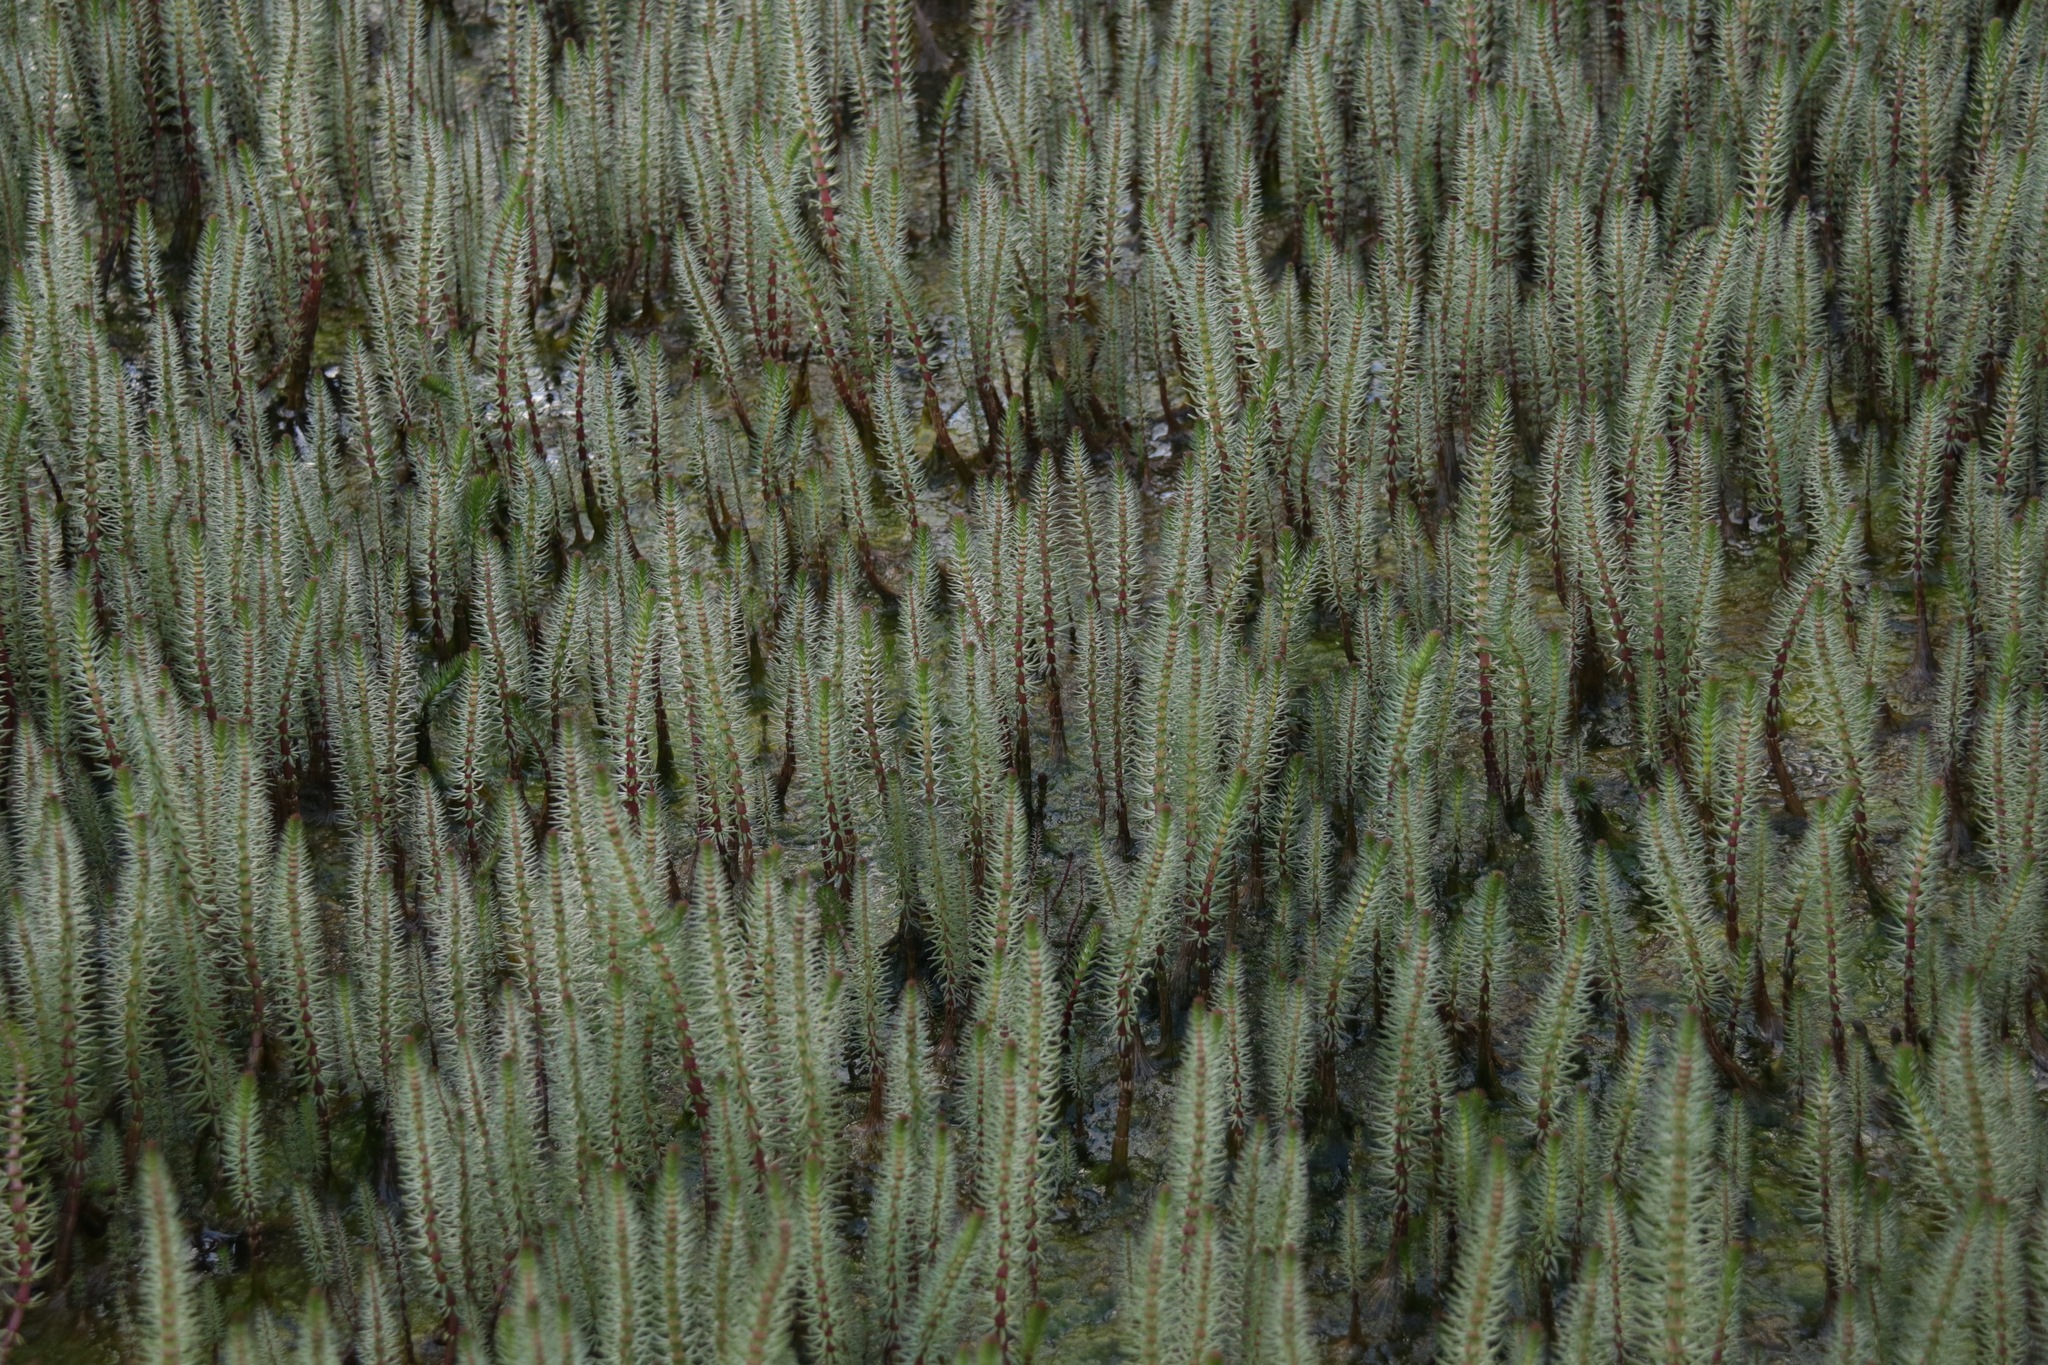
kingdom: Plantae
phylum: Tracheophyta
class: Magnoliopsida
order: Lamiales
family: Plantaginaceae
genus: Hippuris
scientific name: Hippuris vulgaris
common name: Mare's-tail
